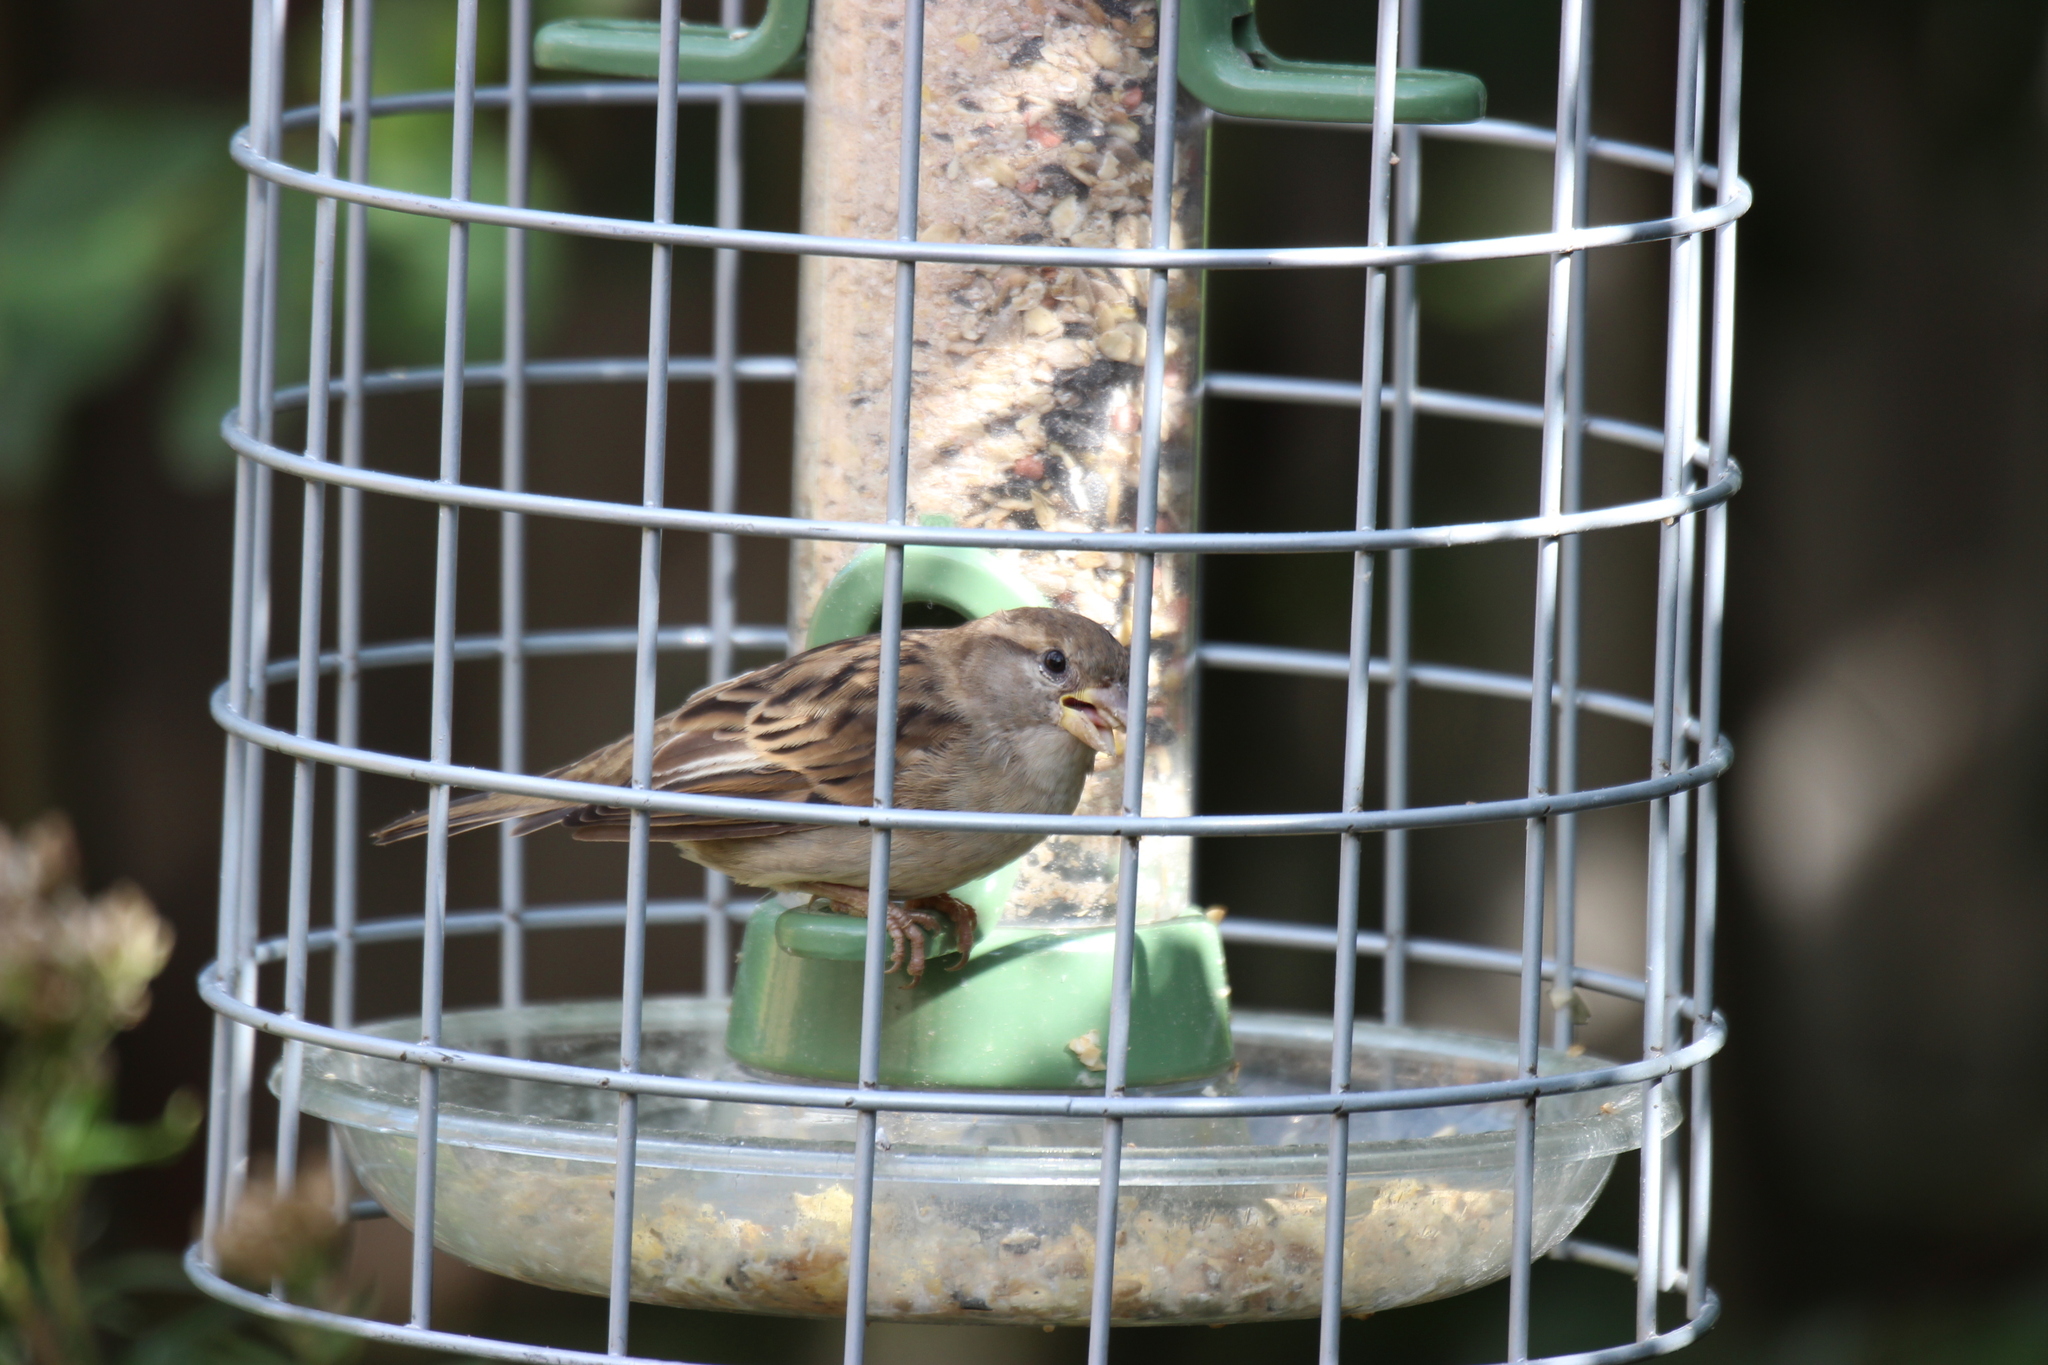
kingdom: Animalia
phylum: Chordata
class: Aves
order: Passeriformes
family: Passeridae
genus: Passer
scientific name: Passer domesticus
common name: House sparrow
